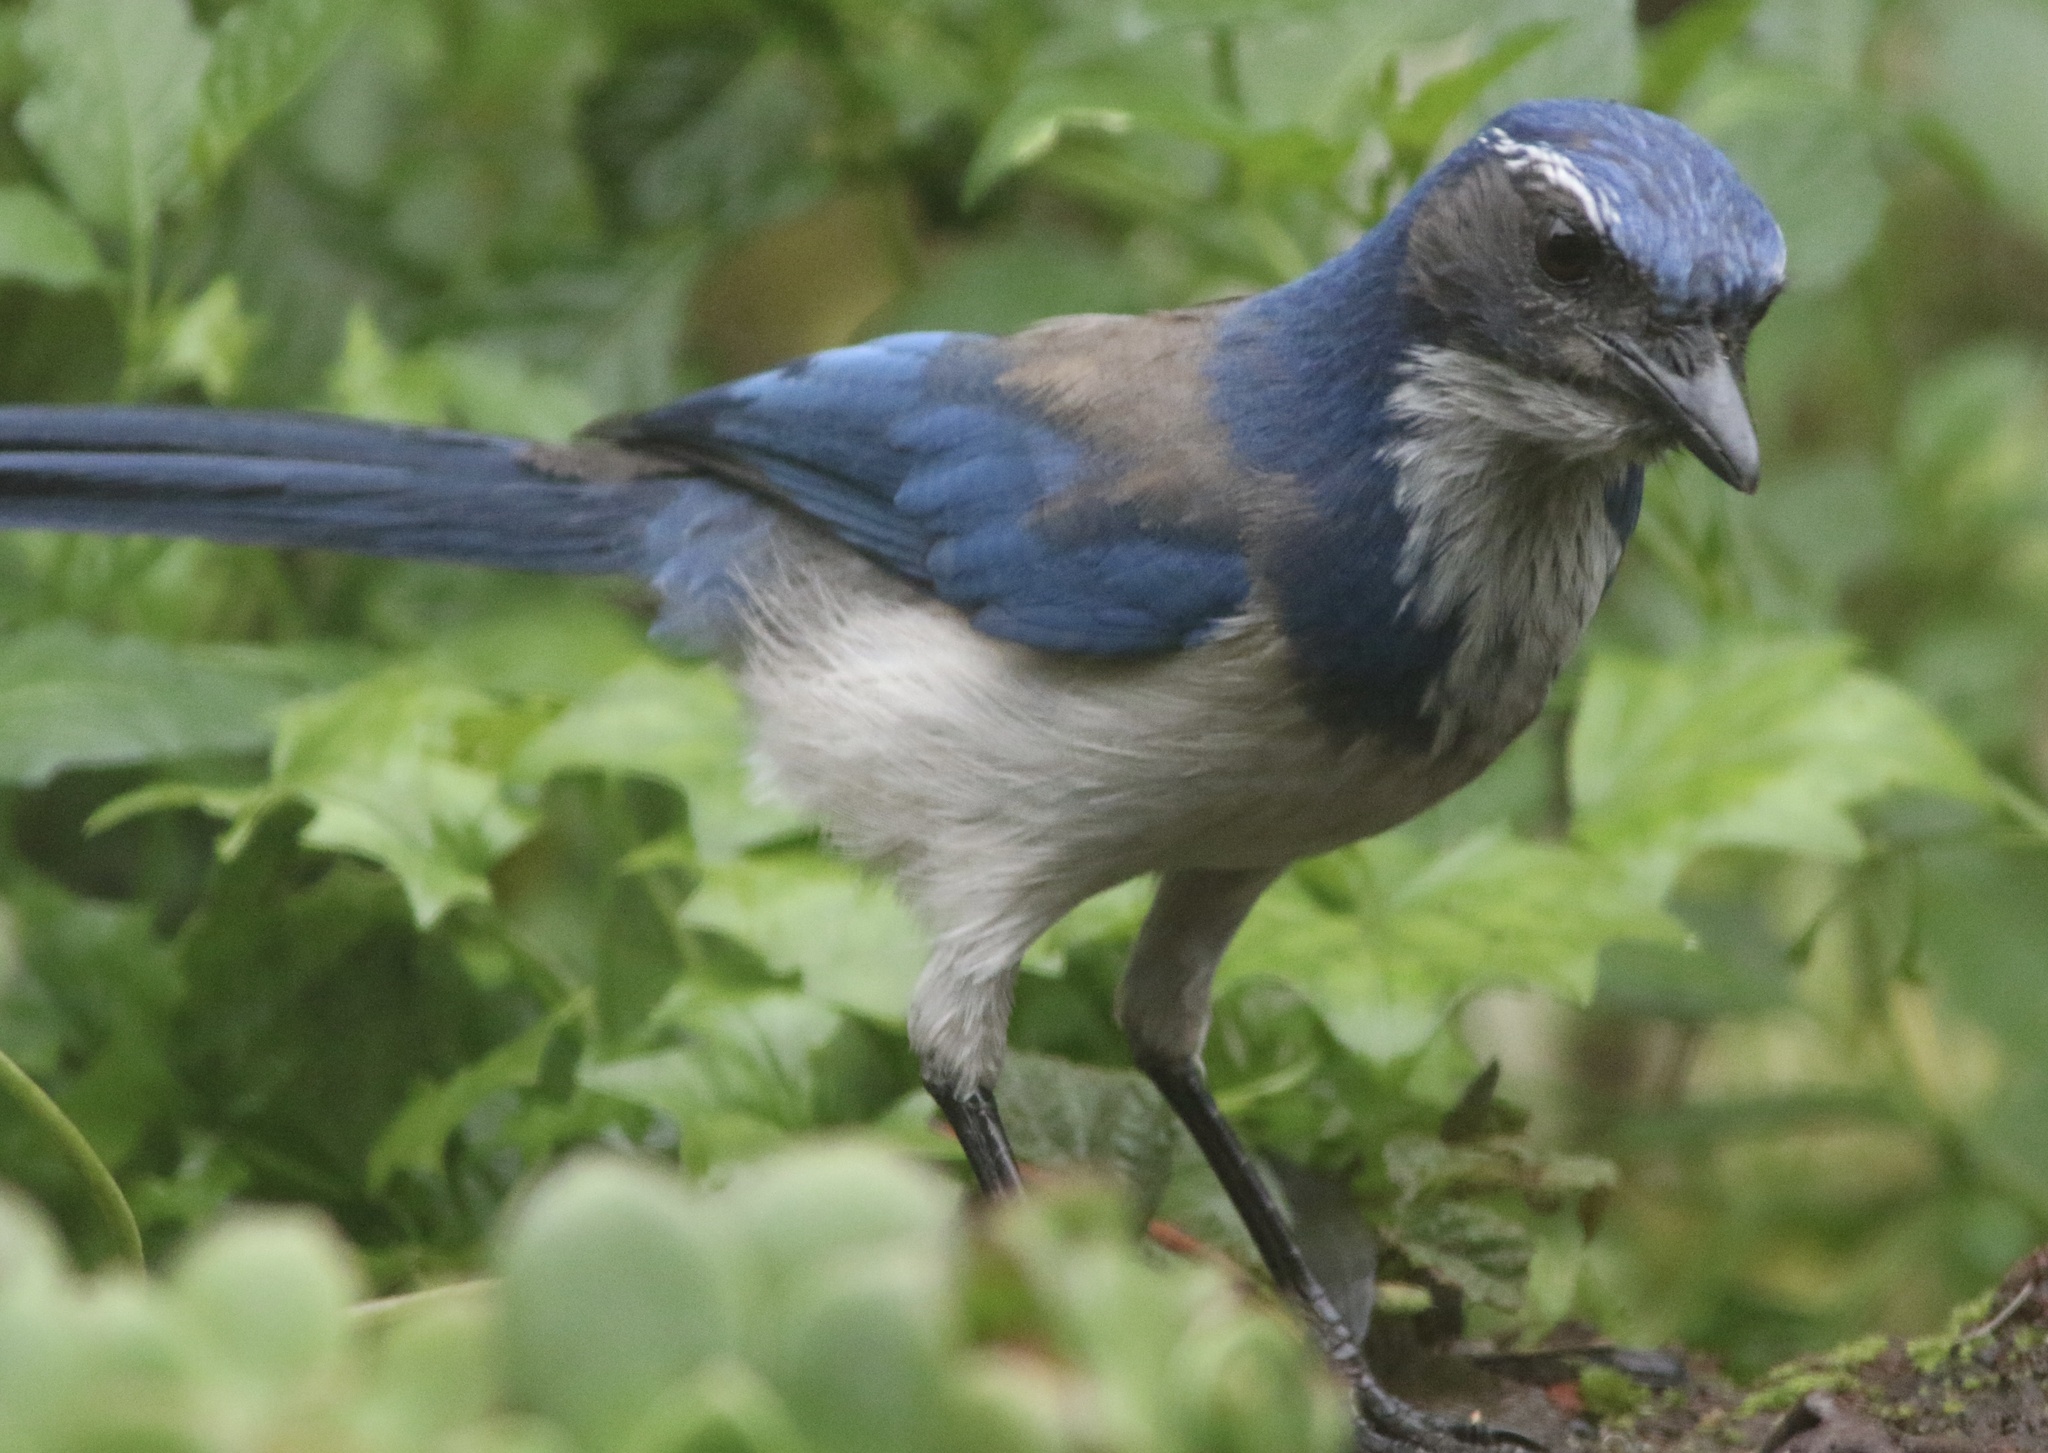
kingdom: Animalia
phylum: Chordata
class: Aves
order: Passeriformes
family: Corvidae
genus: Aphelocoma
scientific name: Aphelocoma californica
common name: California scrub-jay
